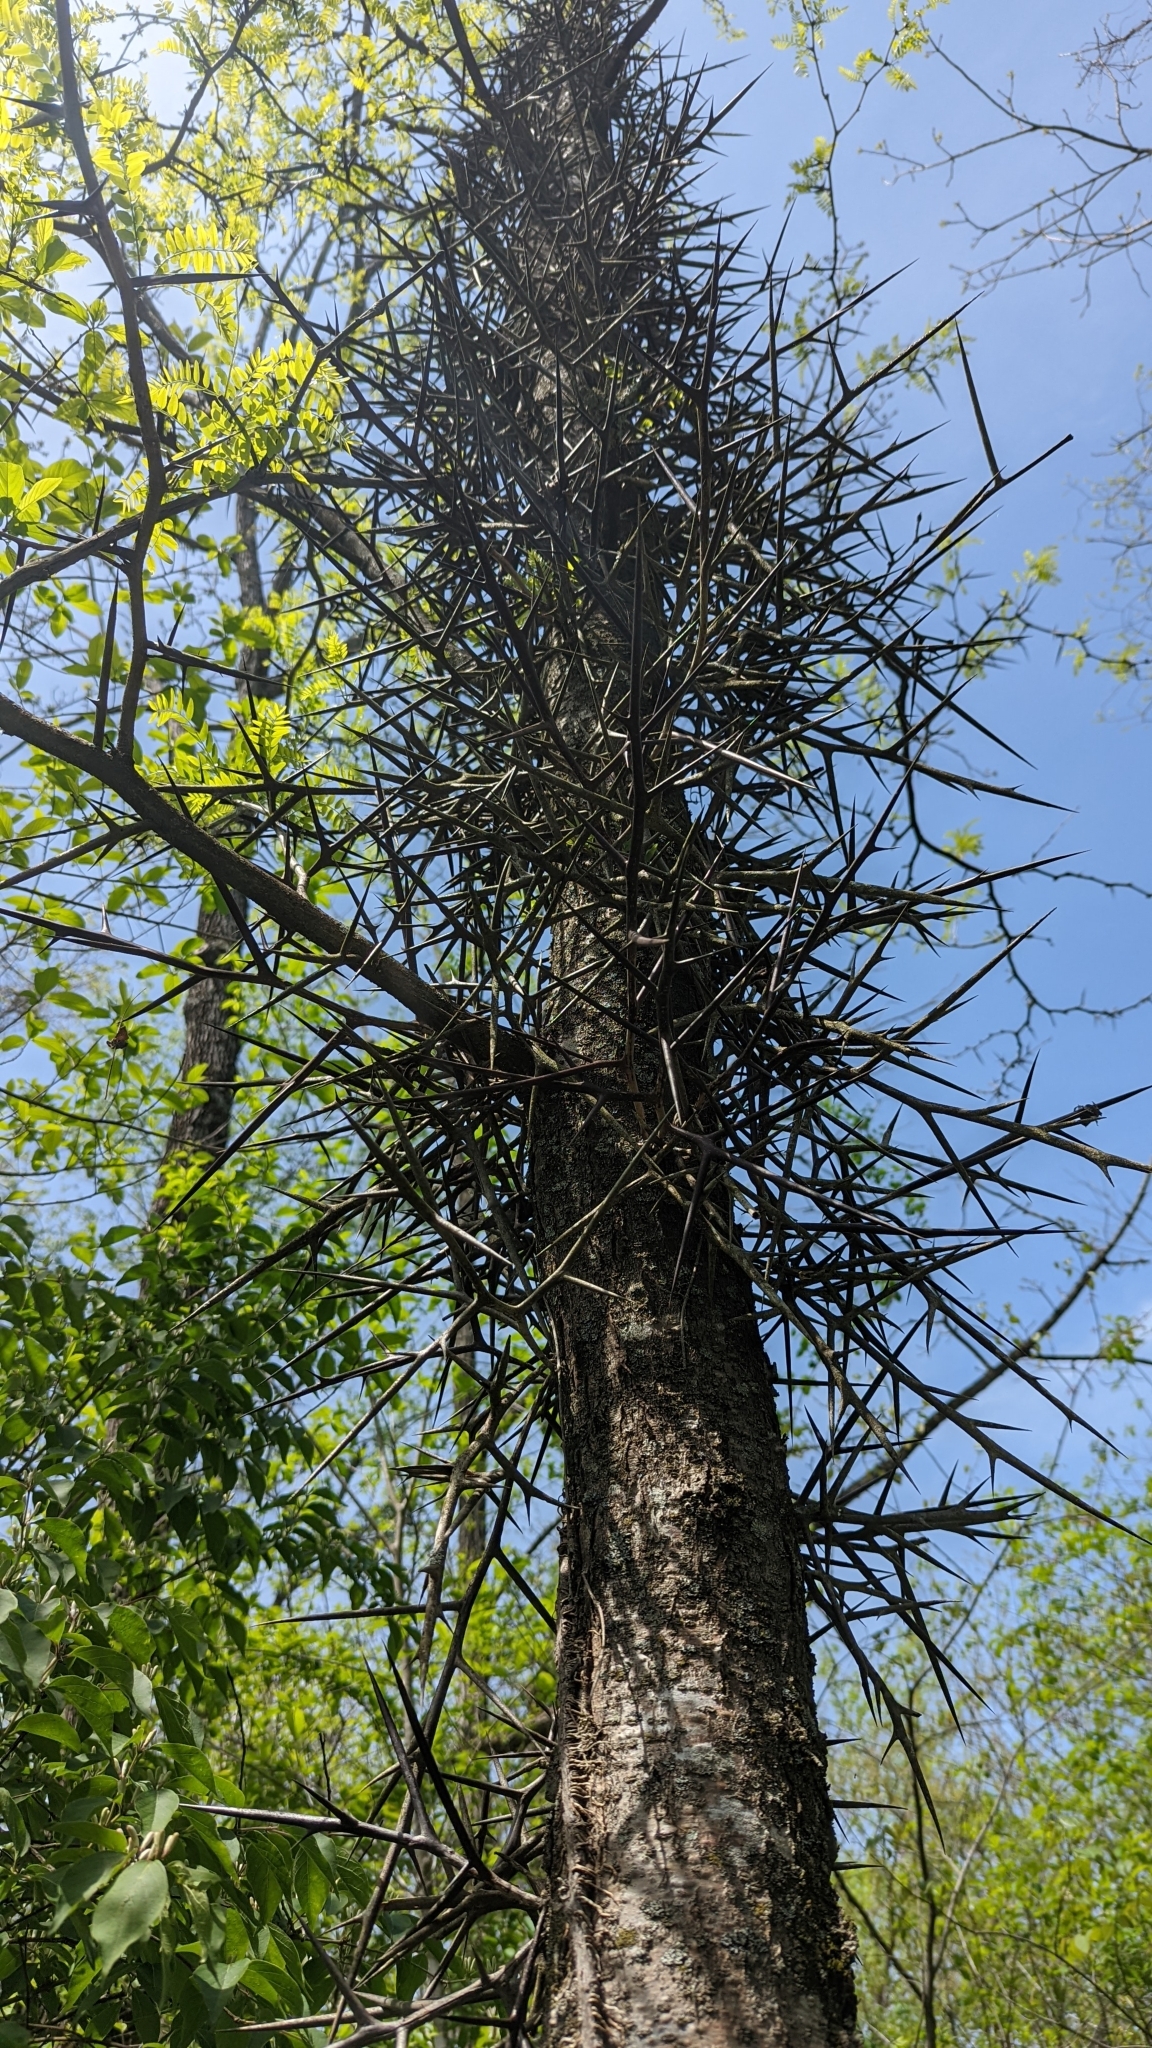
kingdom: Plantae
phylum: Tracheophyta
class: Magnoliopsida
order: Fabales
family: Fabaceae
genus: Gleditsia
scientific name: Gleditsia triacanthos
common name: Common honeylocust
